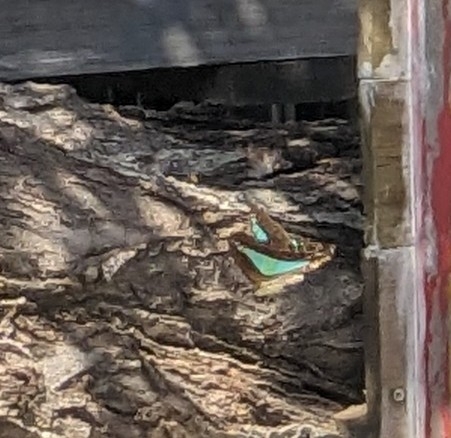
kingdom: Animalia
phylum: Arthropoda
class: Insecta
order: Lepidoptera
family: Papilionidae
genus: Graphium
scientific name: Graphium
